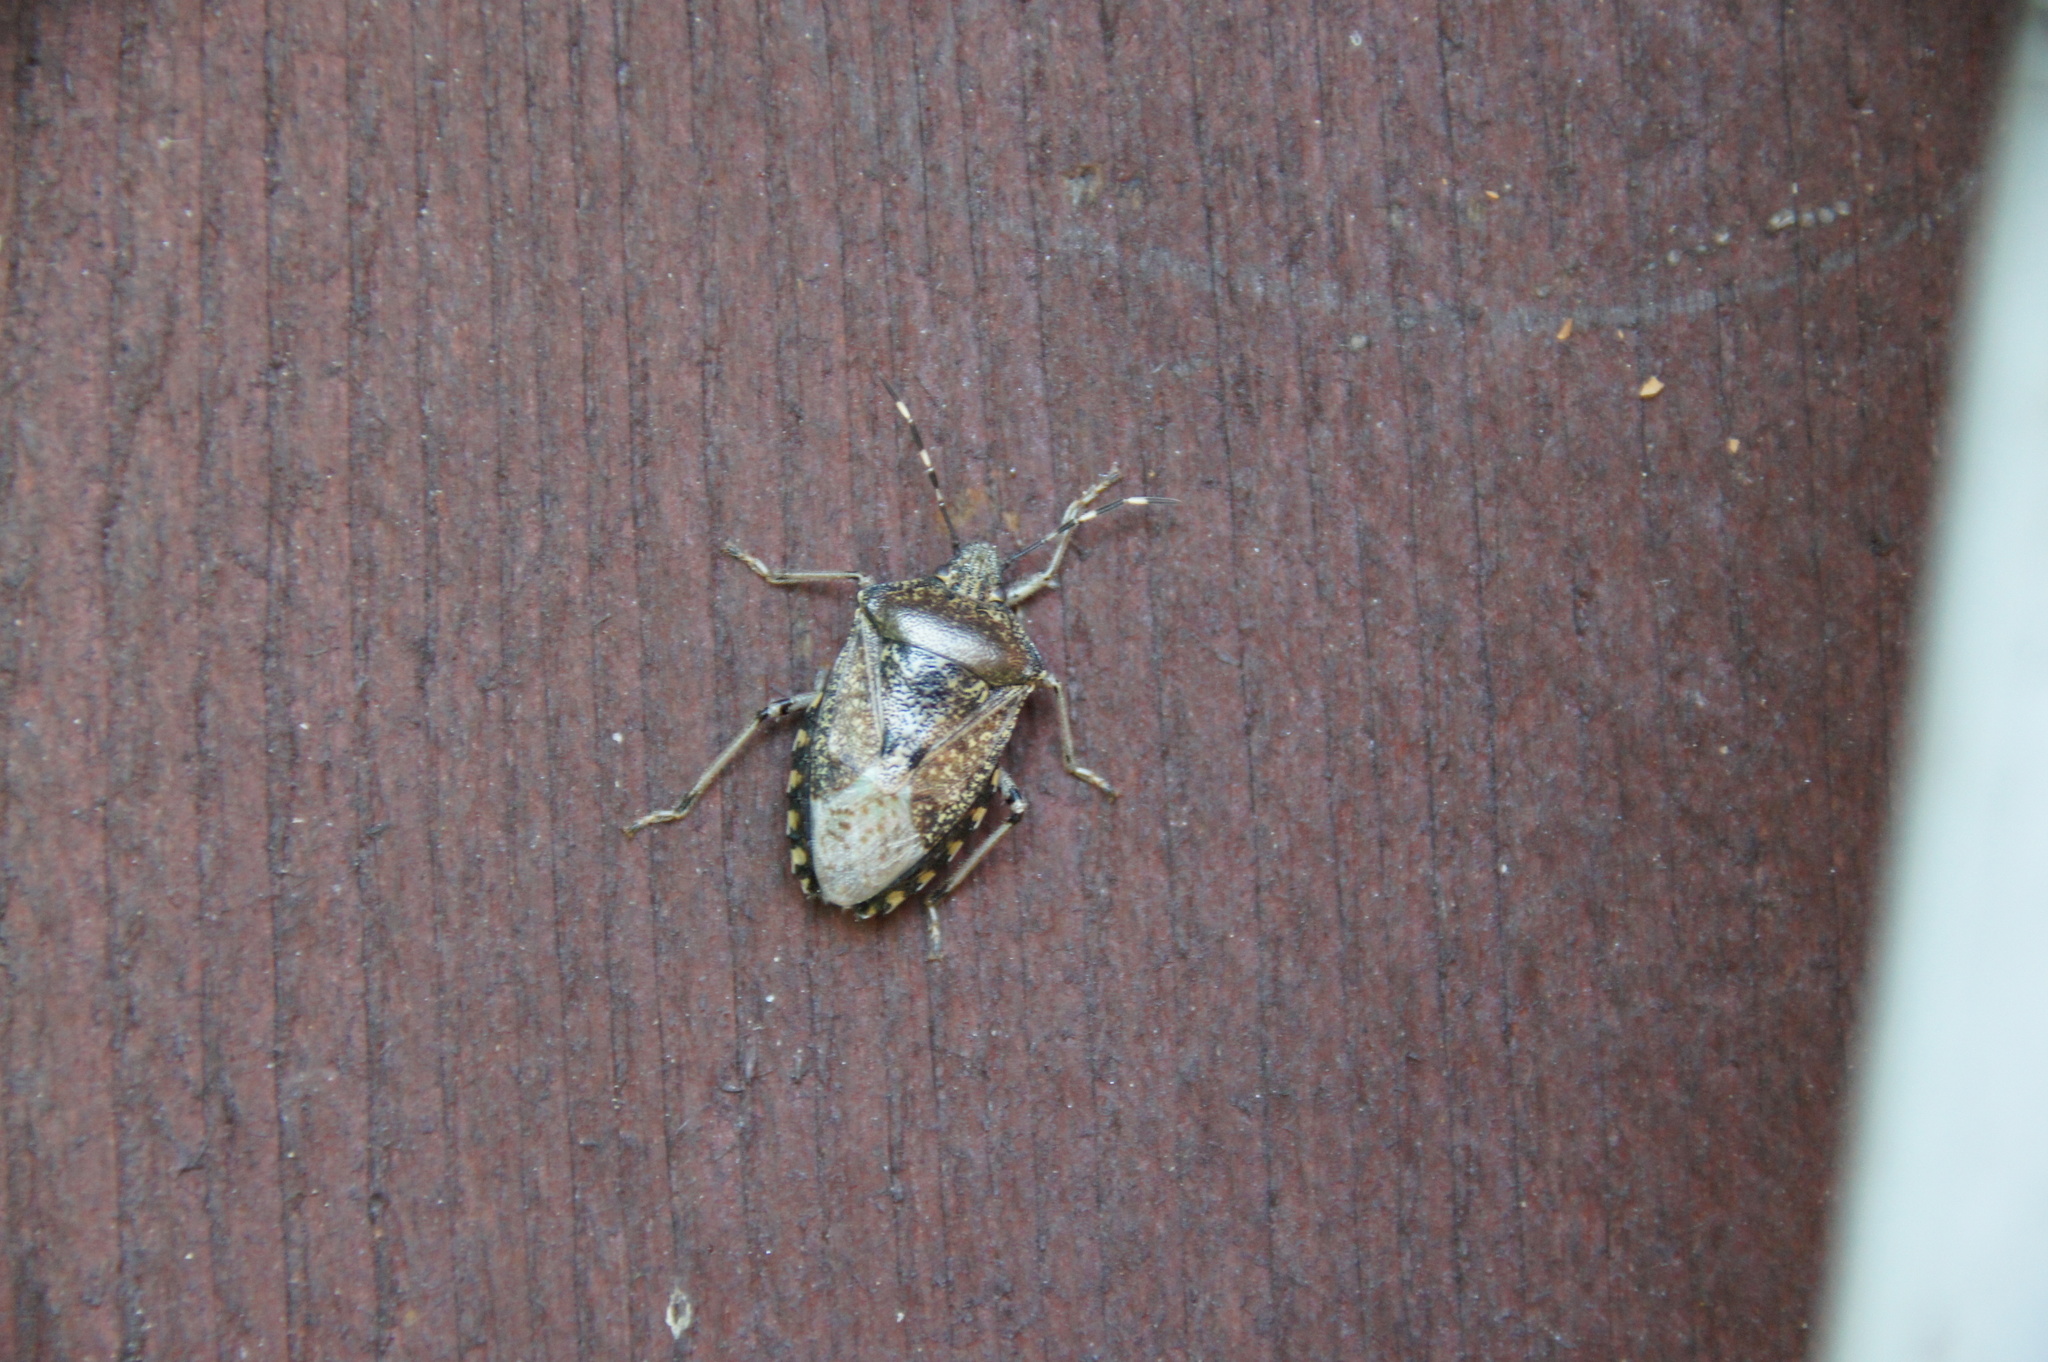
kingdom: Animalia
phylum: Arthropoda
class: Insecta
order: Hemiptera
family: Pentatomidae
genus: Rhaphigaster
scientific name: Rhaphigaster nebulosa
